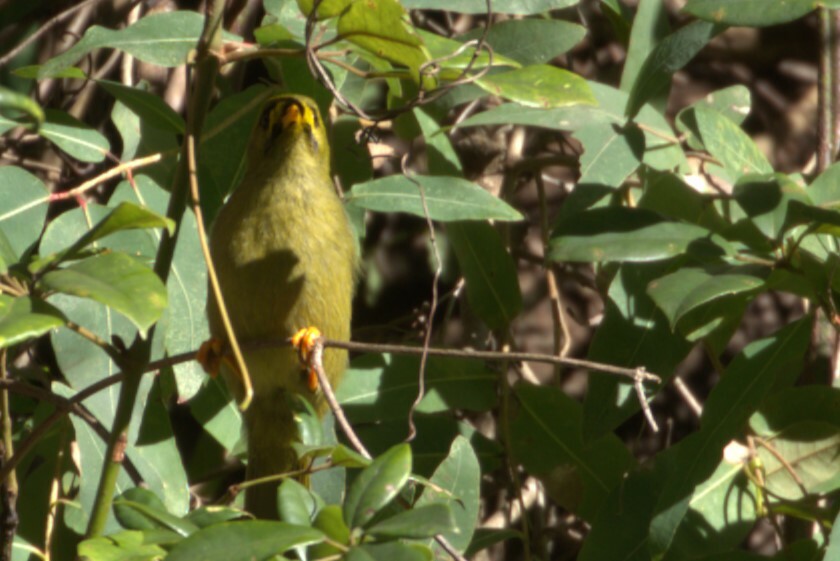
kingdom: Animalia
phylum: Chordata
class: Aves
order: Passeriformes
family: Meliphagidae
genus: Manorina
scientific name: Manorina melanophrys
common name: Bell miner
